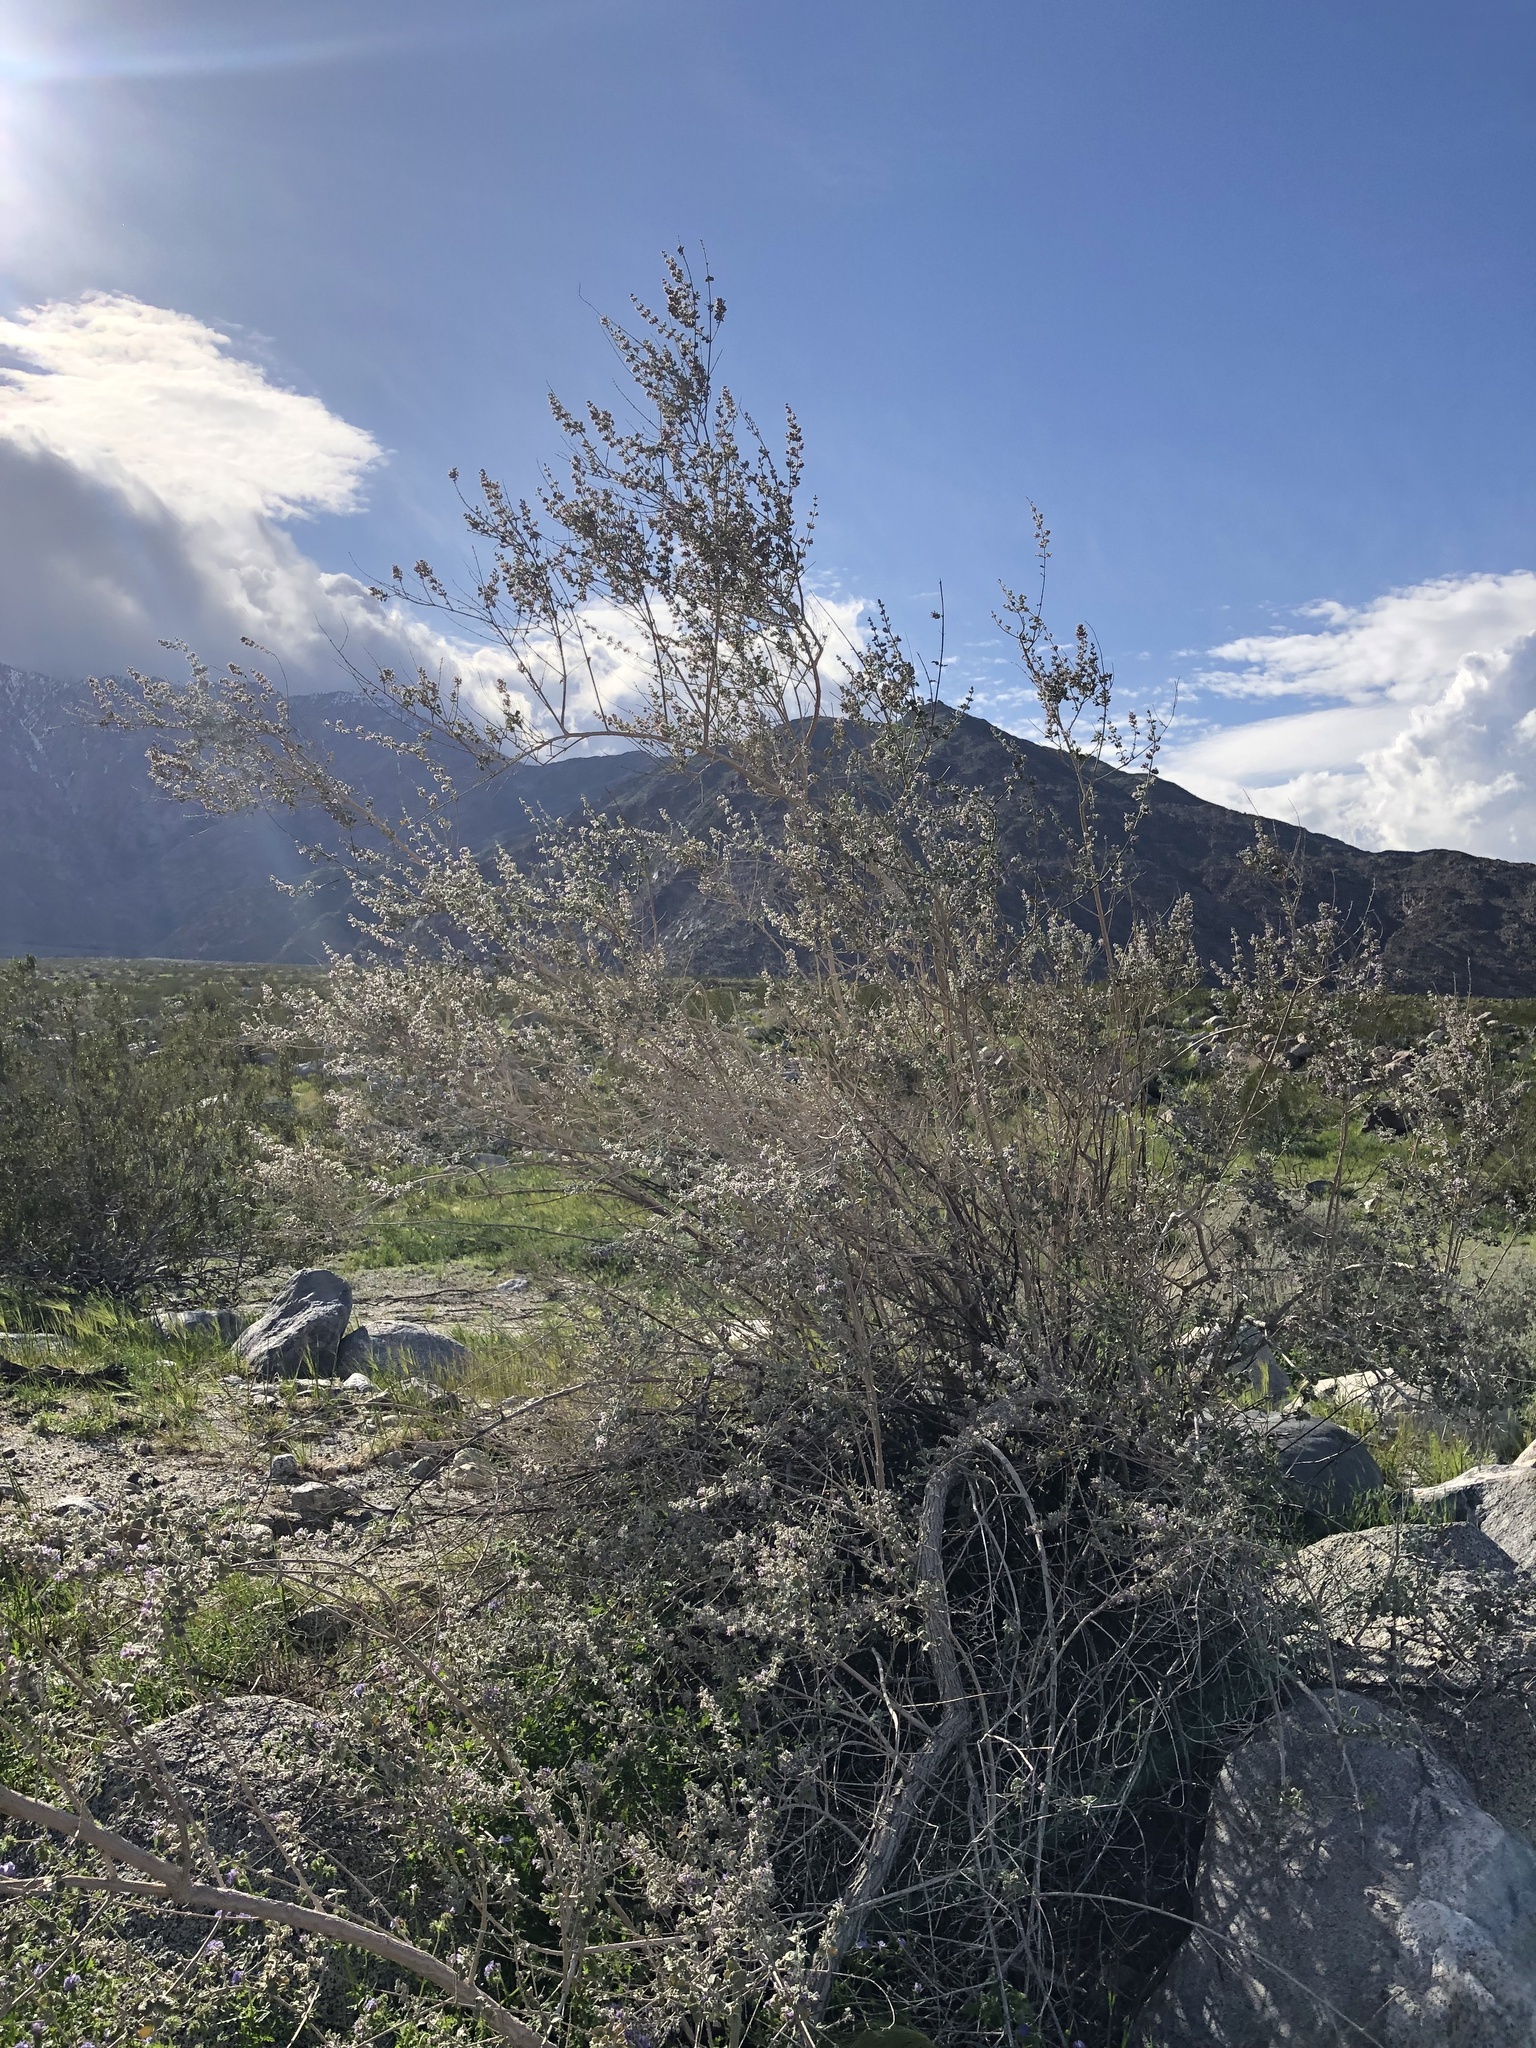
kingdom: Plantae
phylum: Tracheophyta
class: Magnoliopsida
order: Lamiales
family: Lamiaceae
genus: Condea
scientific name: Condea emoryi
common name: Chia
